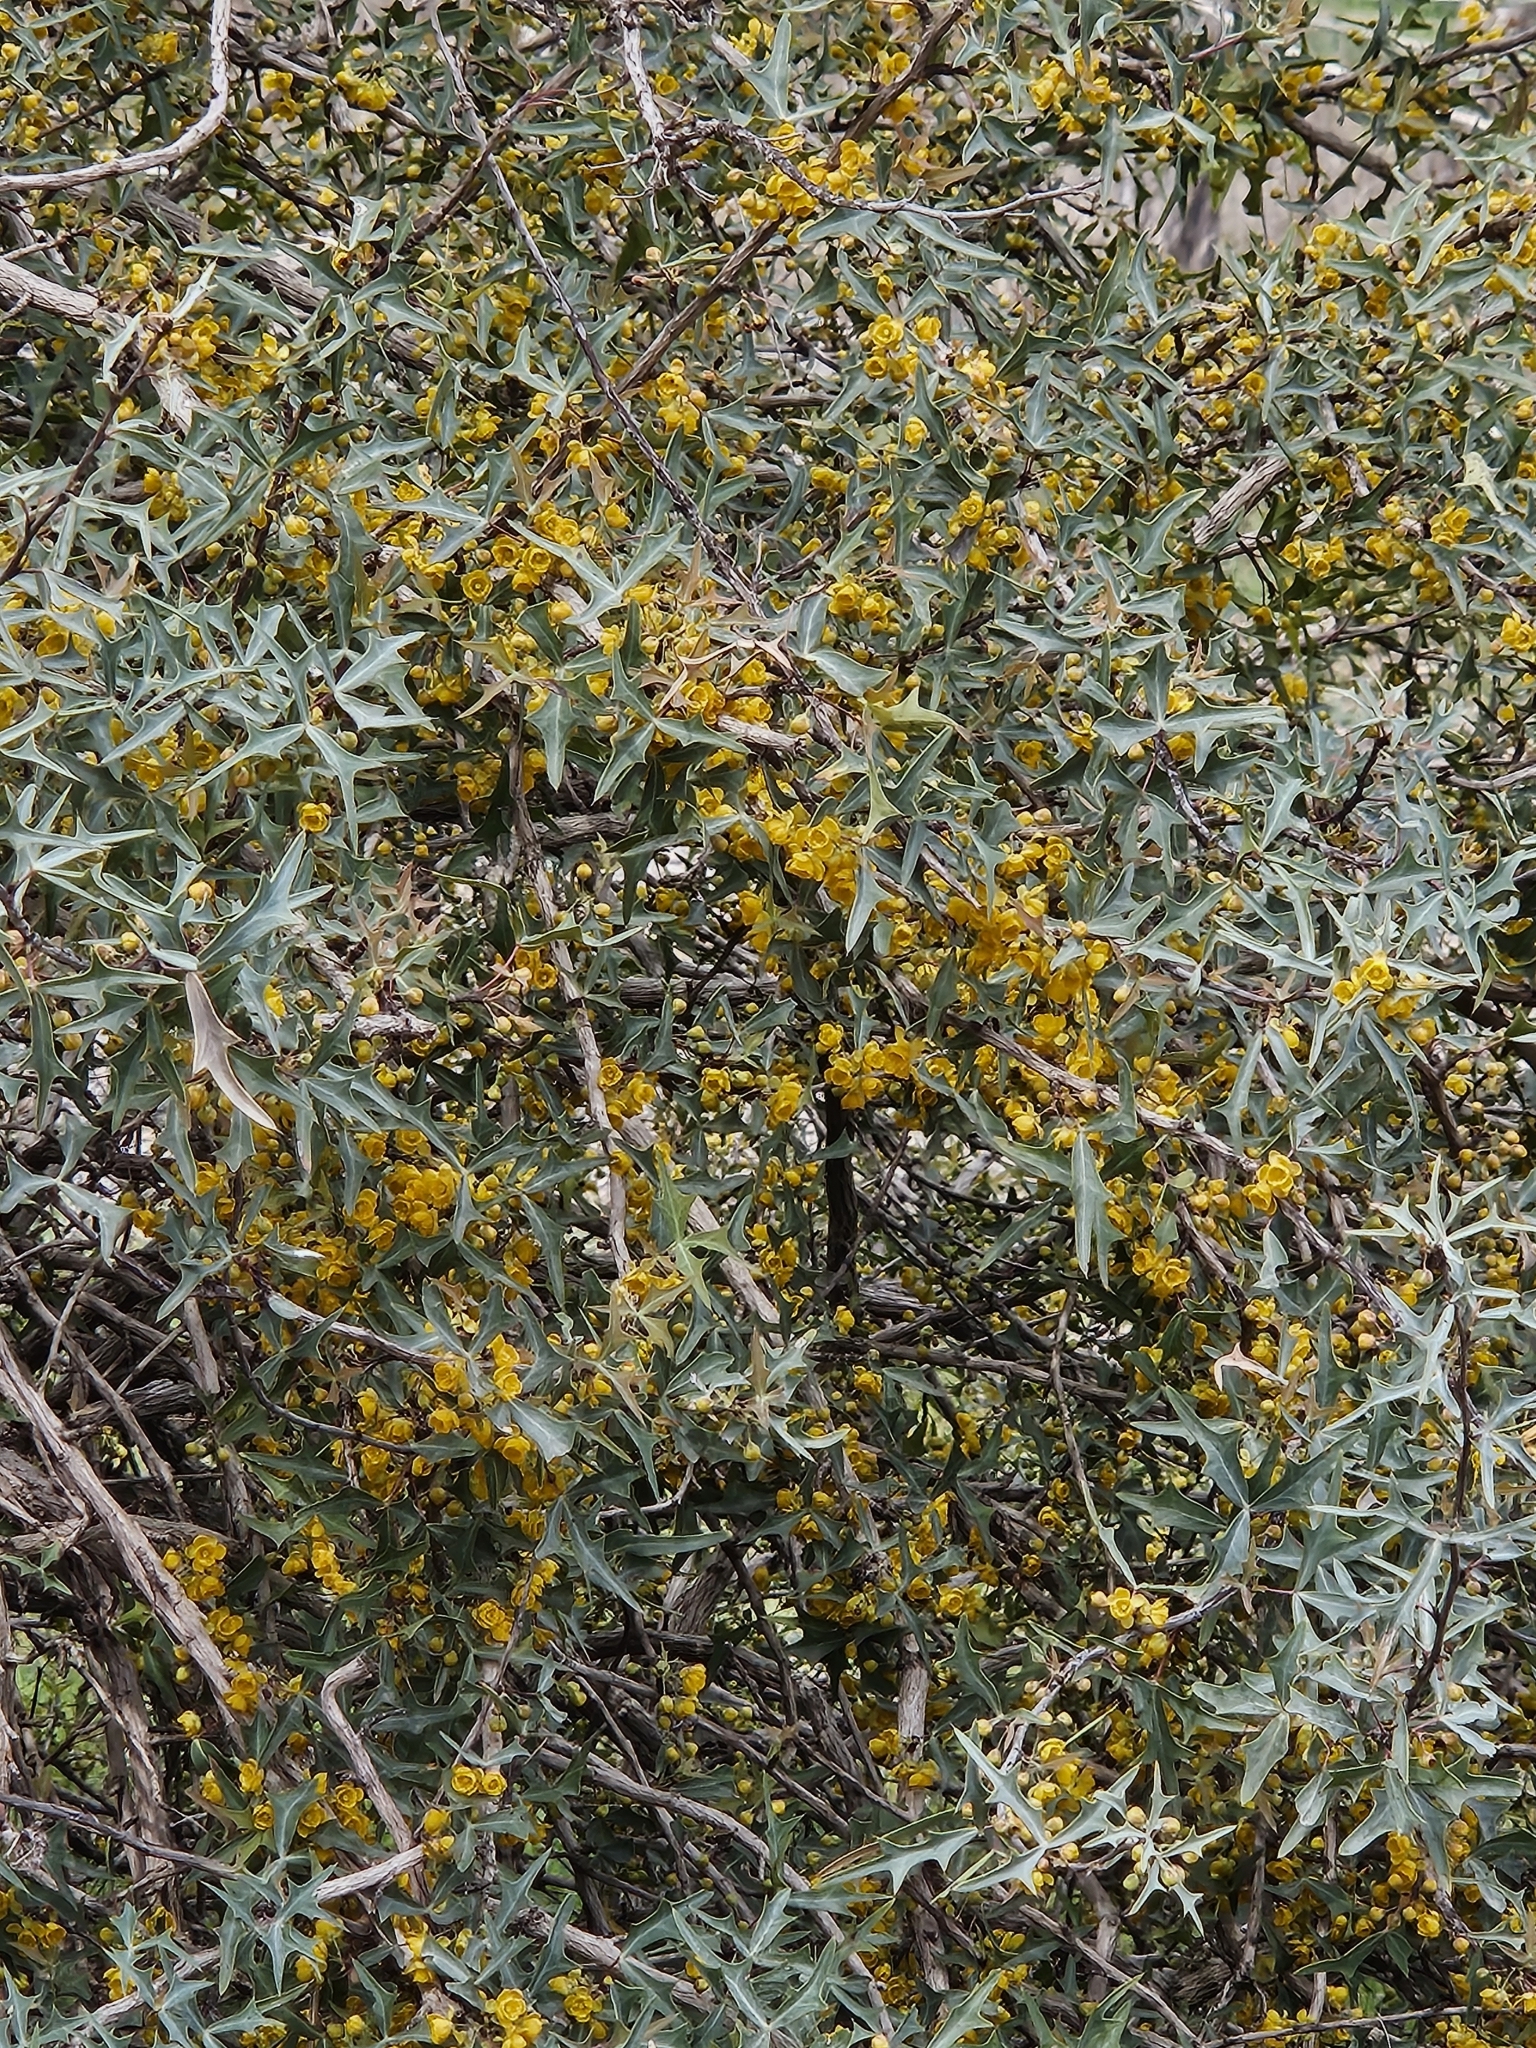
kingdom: Plantae
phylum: Tracheophyta
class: Magnoliopsida
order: Ranunculales
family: Berberidaceae
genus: Alloberberis
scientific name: Alloberberis trifoliolata
